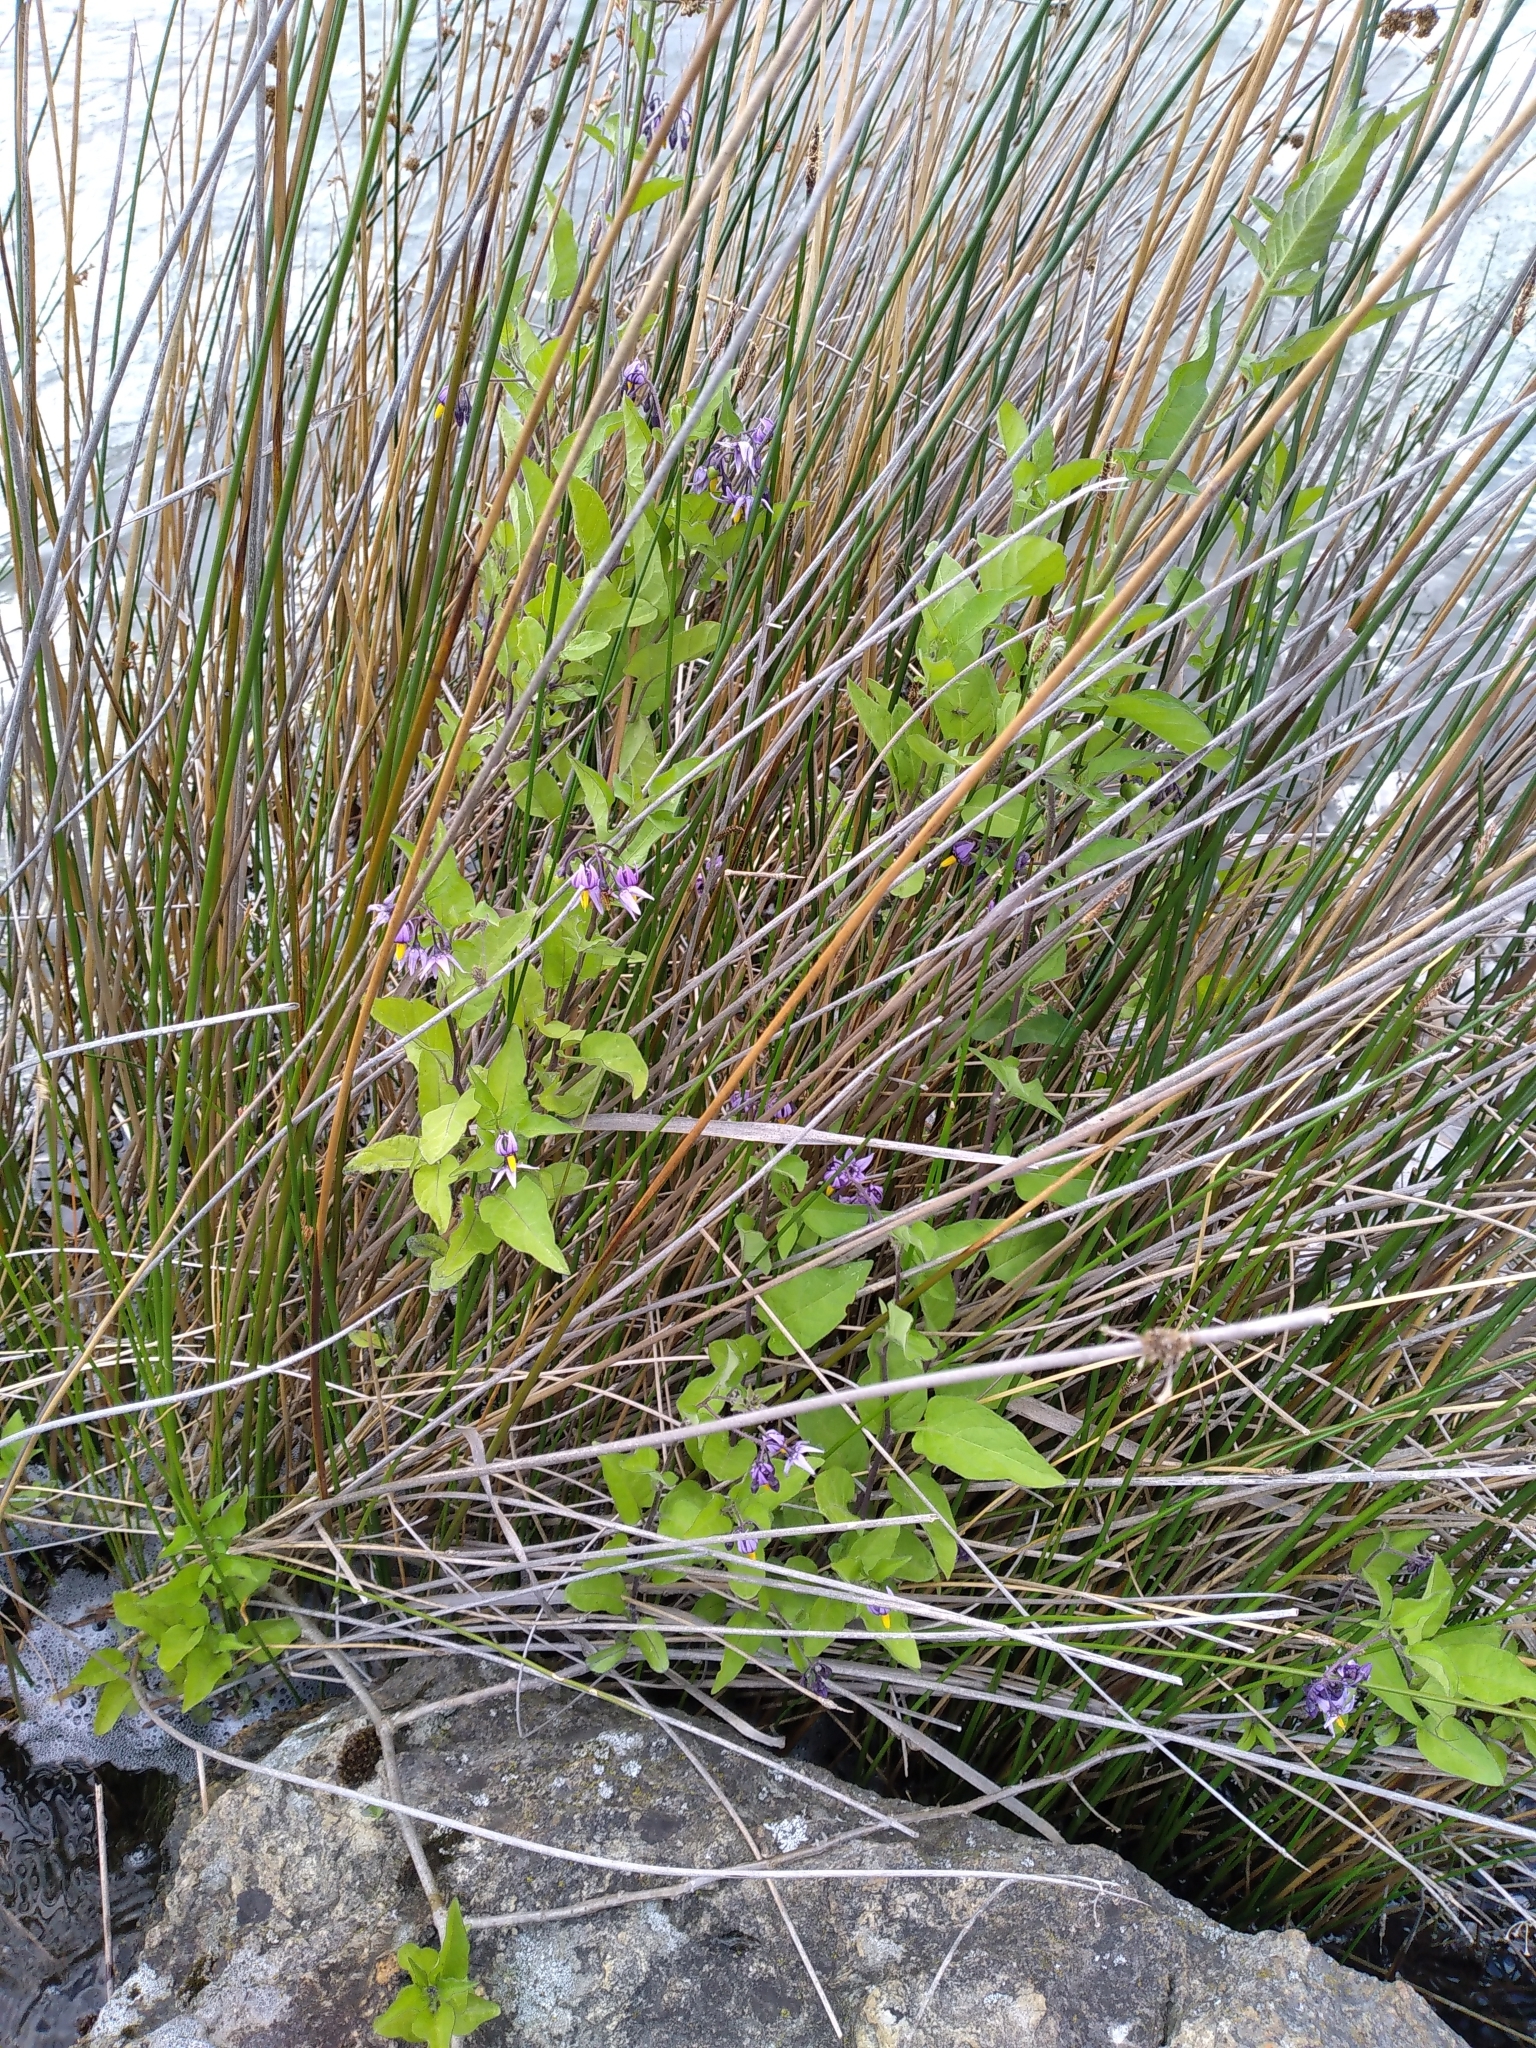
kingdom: Plantae
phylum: Tracheophyta
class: Magnoliopsida
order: Solanales
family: Solanaceae
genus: Solanum
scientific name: Solanum dulcamara
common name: Climbing nightshade
